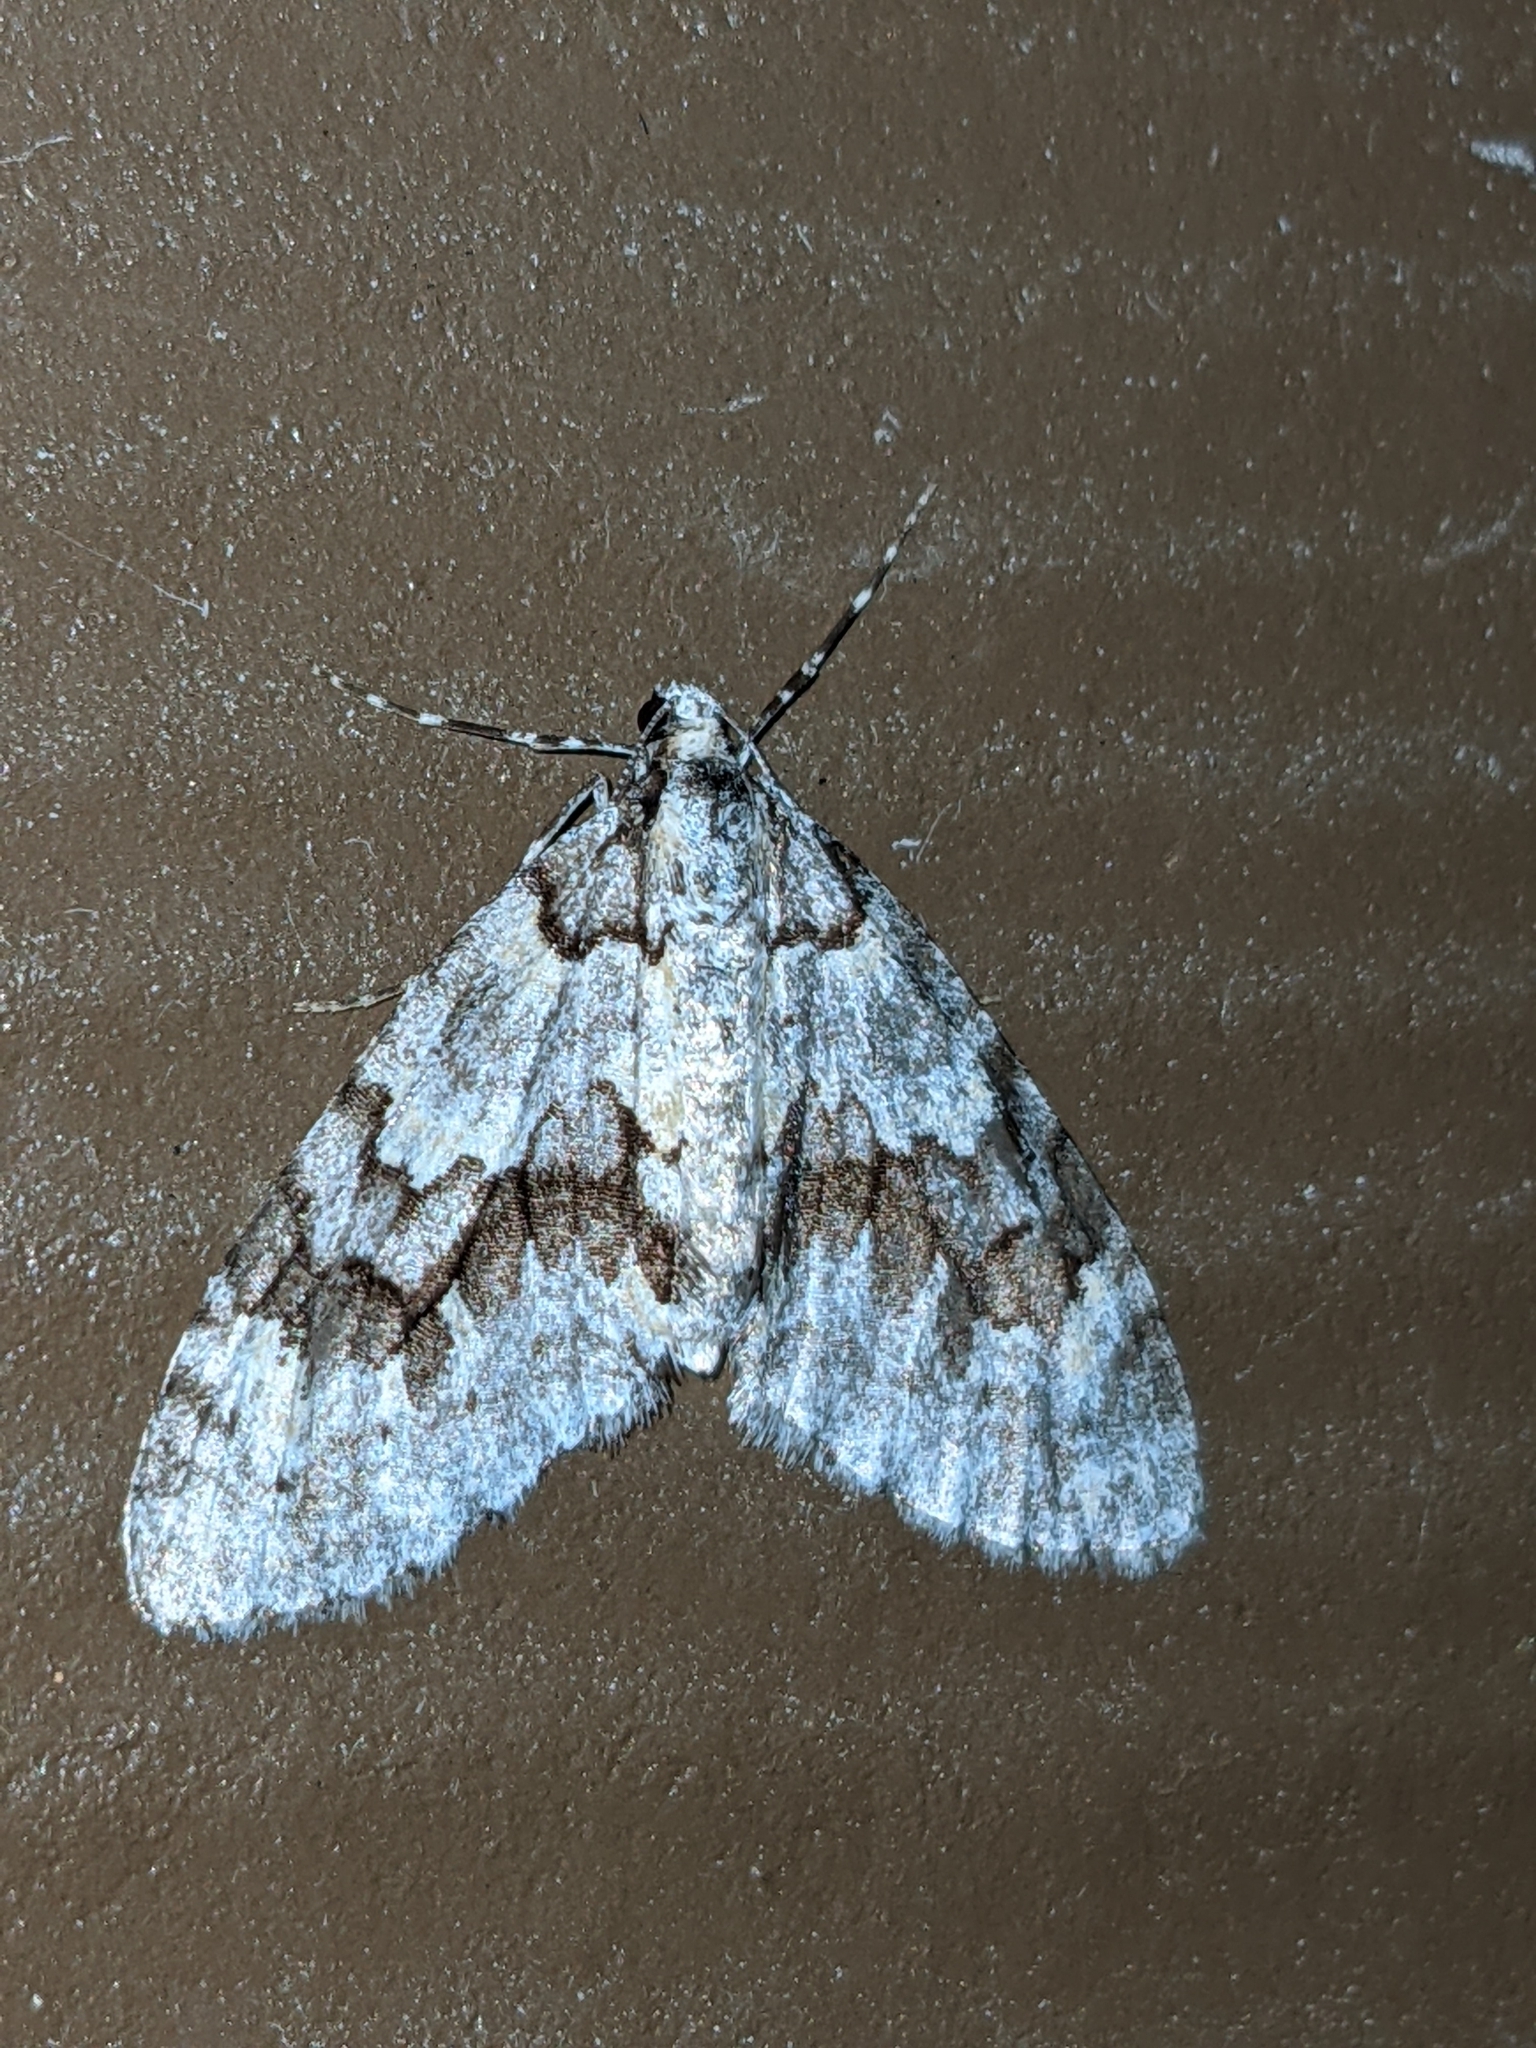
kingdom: Animalia
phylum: Arthropoda
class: Insecta
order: Lepidoptera
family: Geometridae
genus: Cladara
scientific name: Cladara limitaria
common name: Mottled gray carpet
